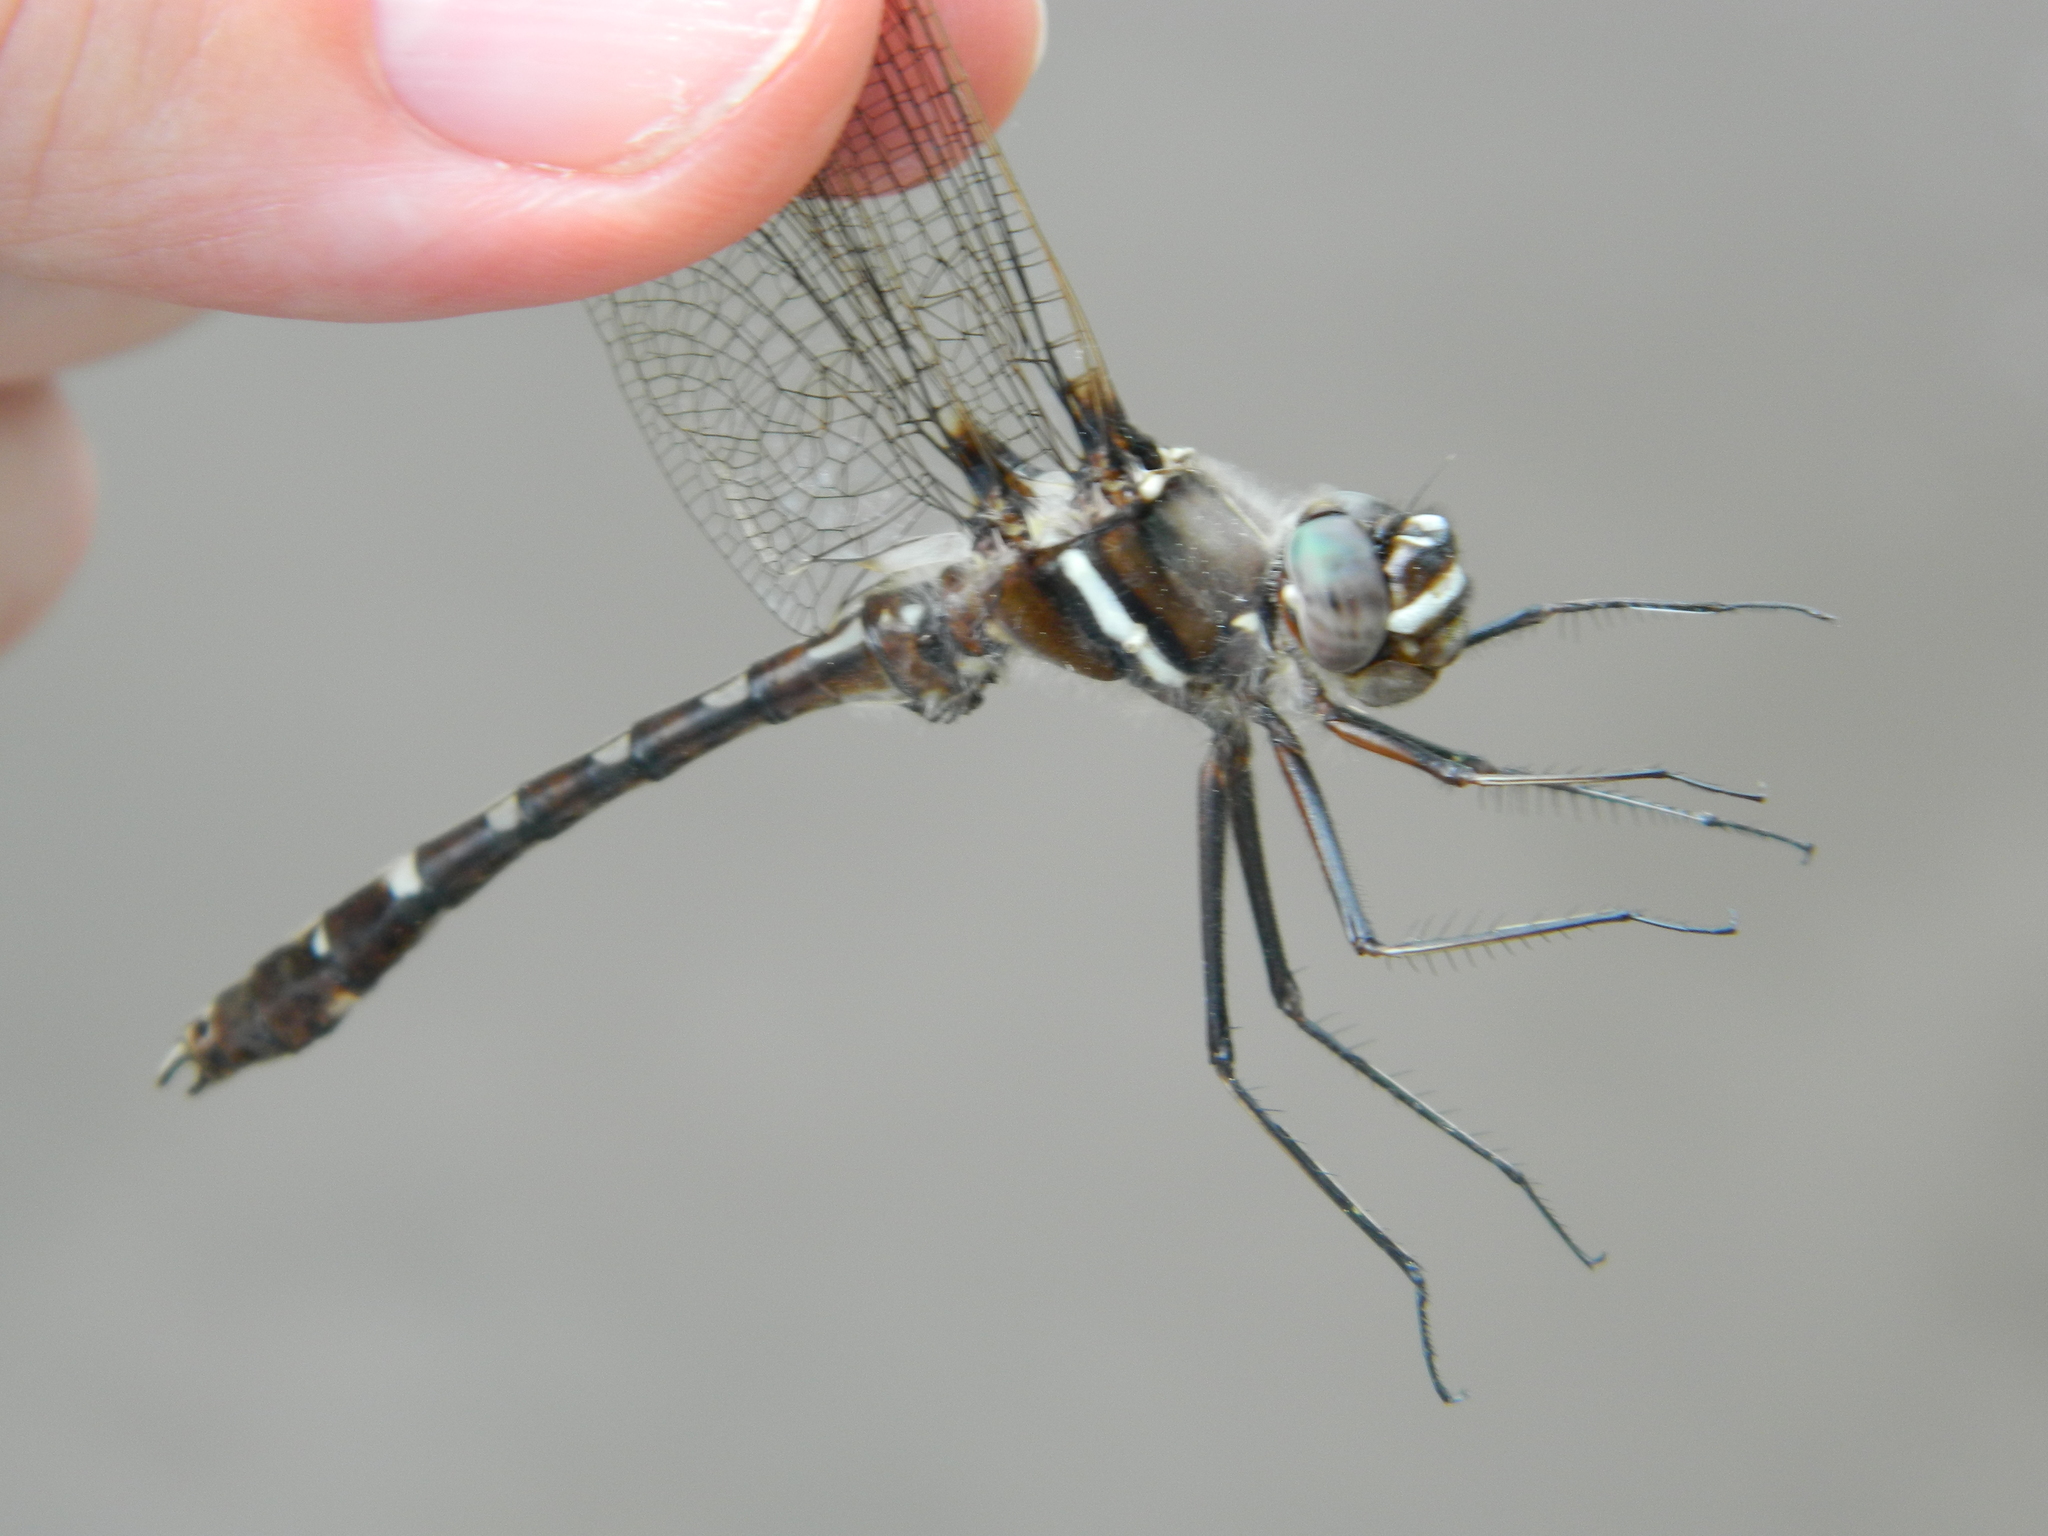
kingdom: Animalia
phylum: Arthropoda
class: Insecta
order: Odonata
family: Macromiidae
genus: Didymops
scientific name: Didymops transversa
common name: Stream cruiser
